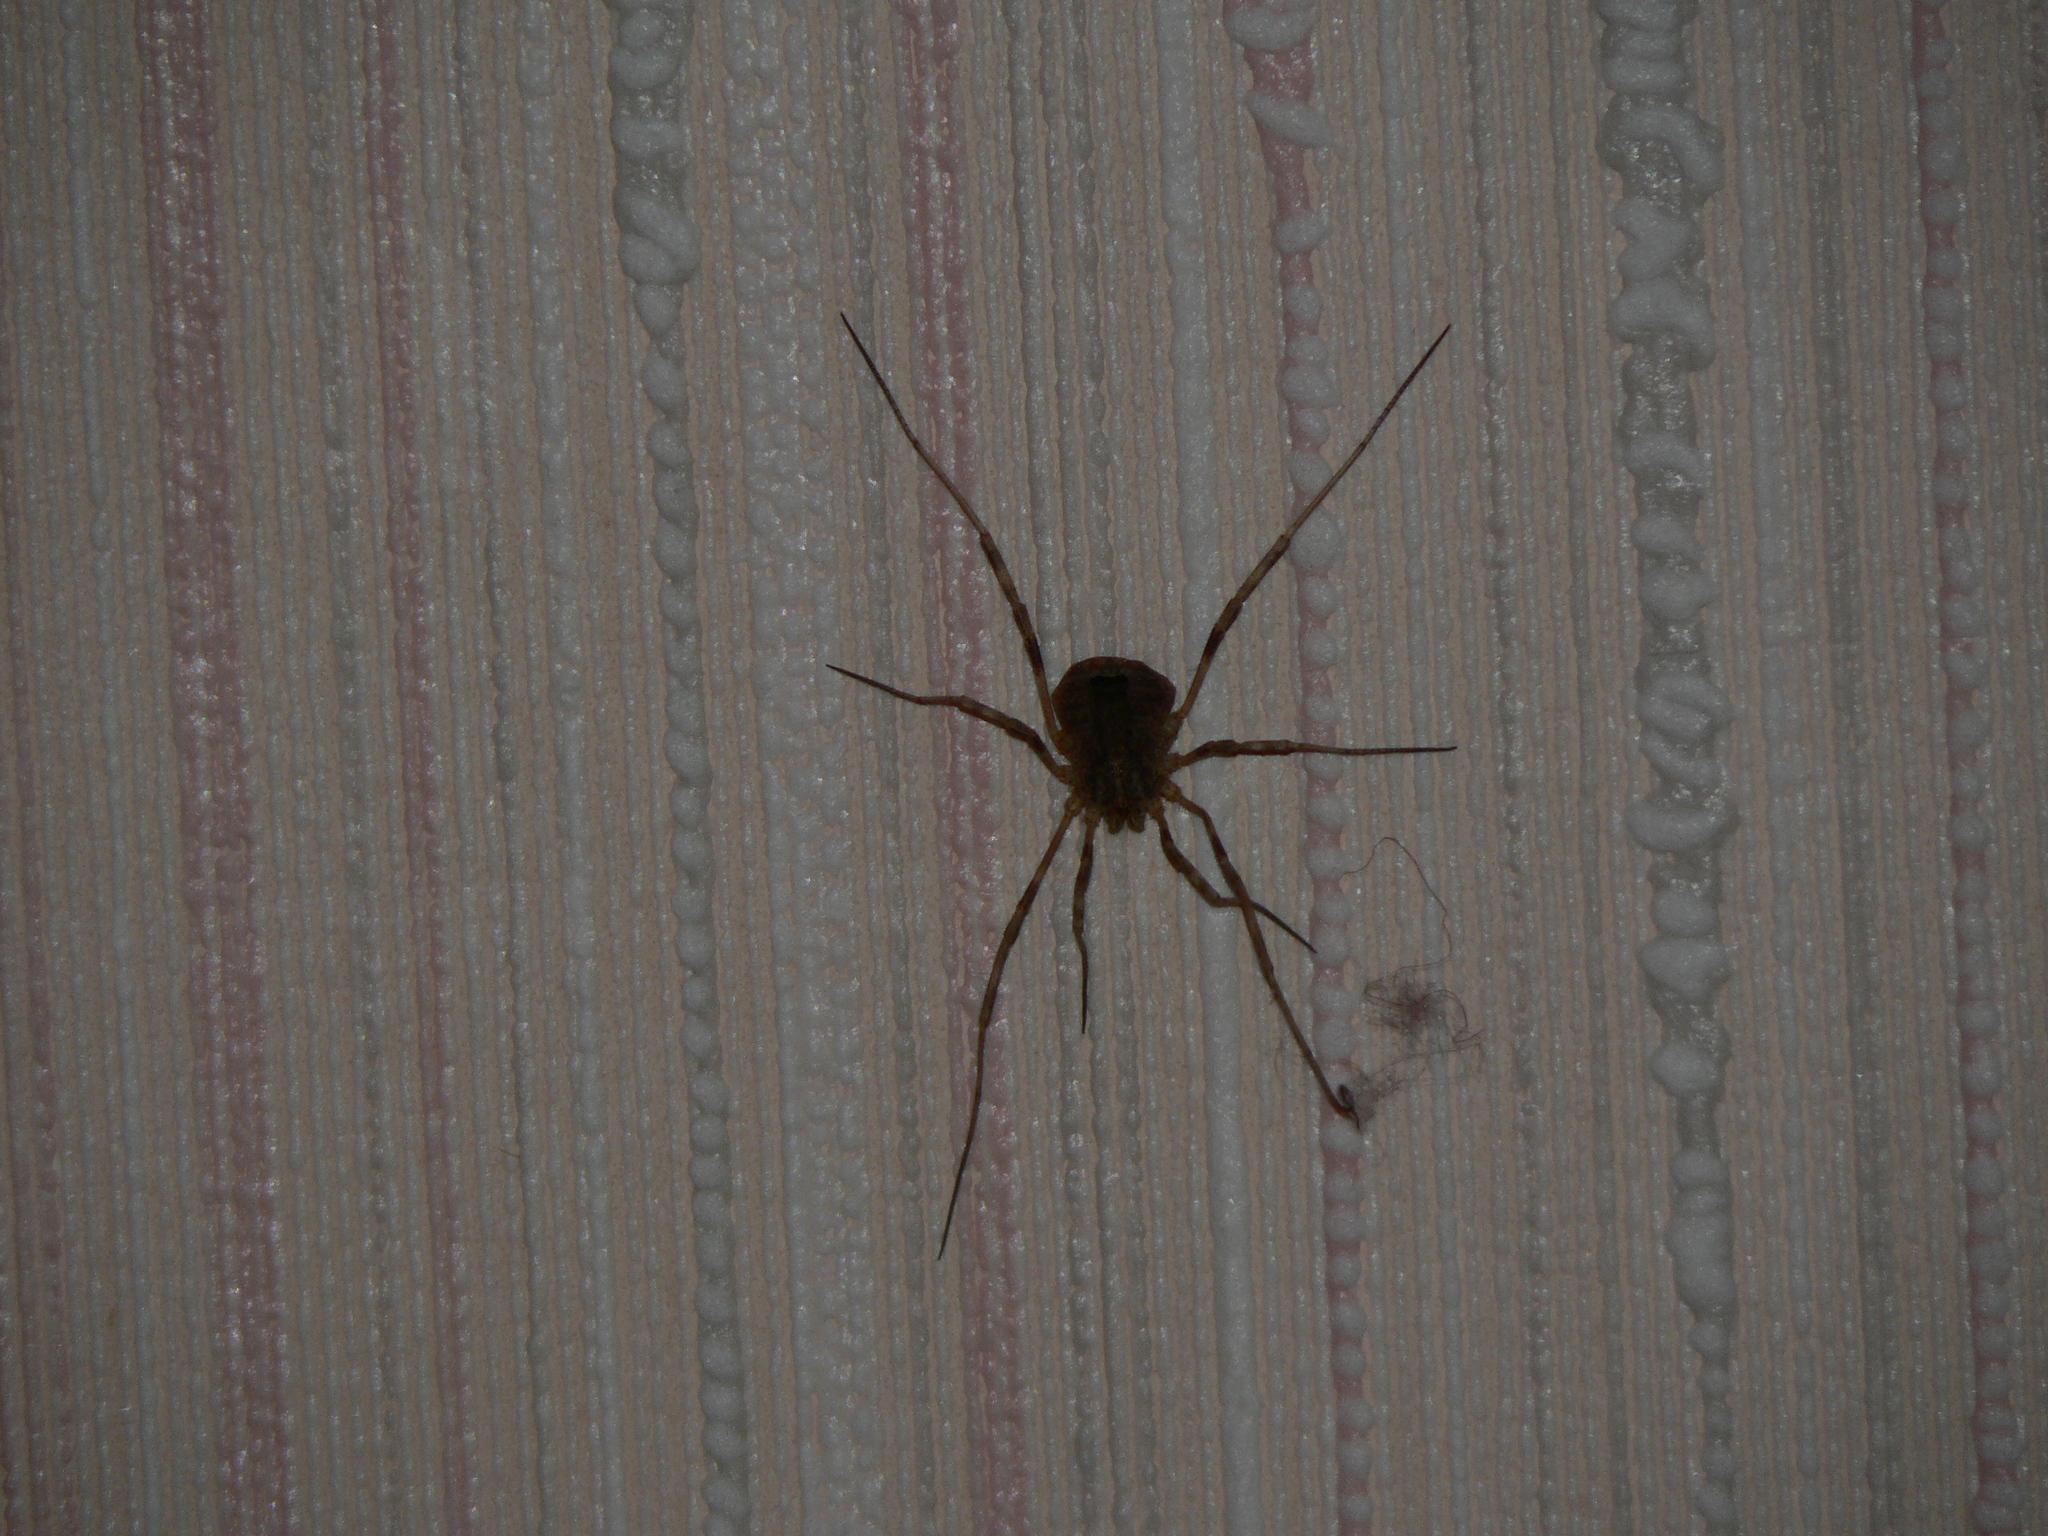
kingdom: Animalia
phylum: Arthropoda
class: Arachnida
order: Opiliones
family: Phalangiidae
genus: Odiellus
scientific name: Odiellus spinosus
